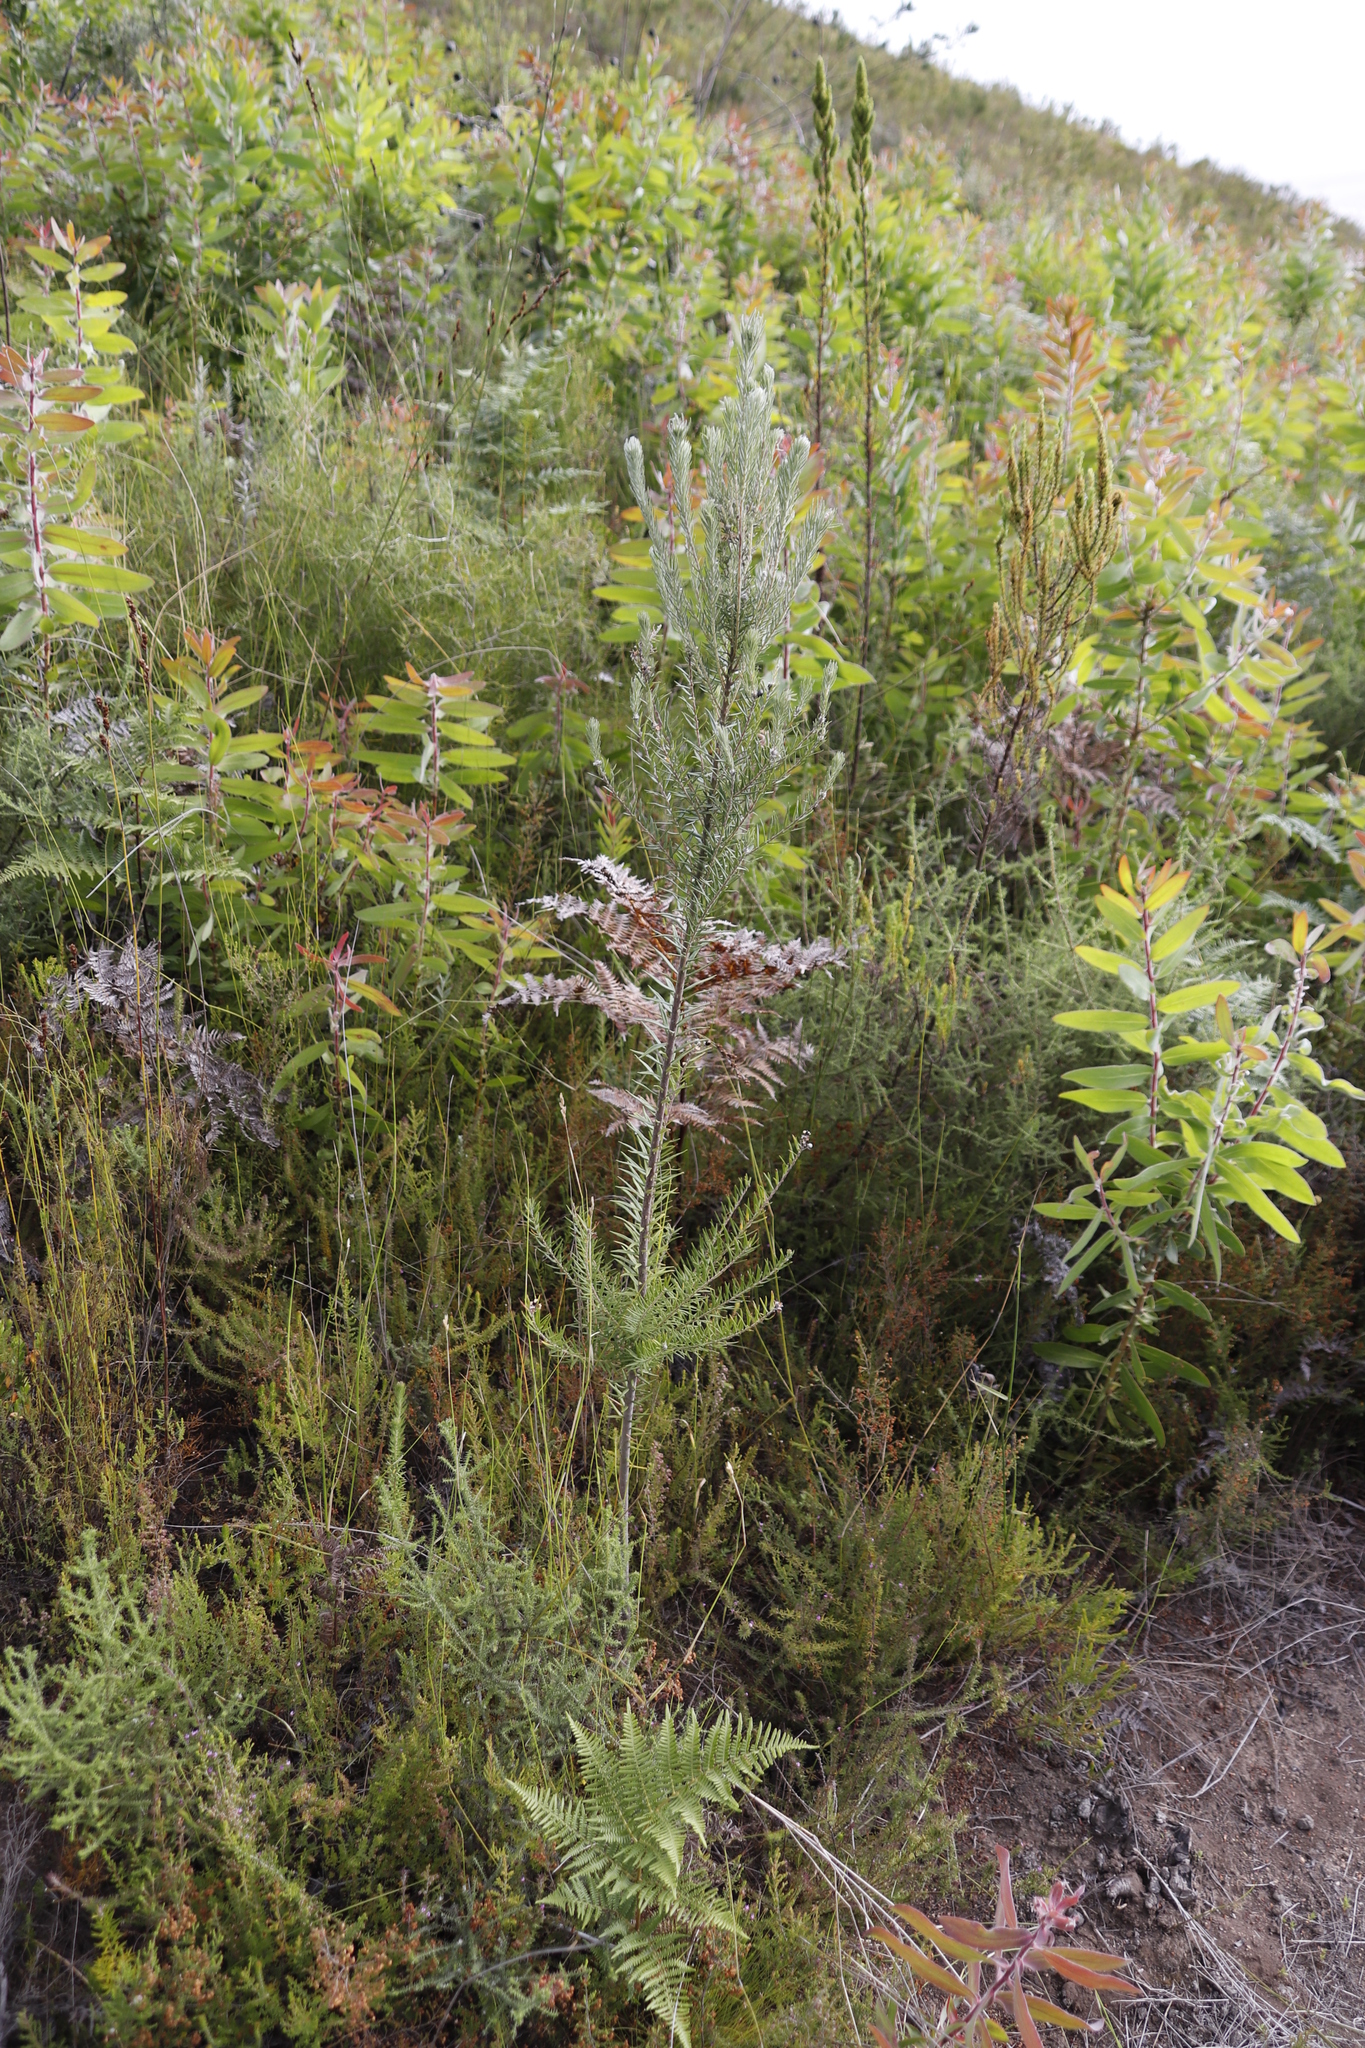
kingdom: Plantae
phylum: Tracheophyta
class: Magnoliopsida
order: Proteales
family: Proteaceae
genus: Protea
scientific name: Protea aurea
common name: Shuttlecock sugarbush
